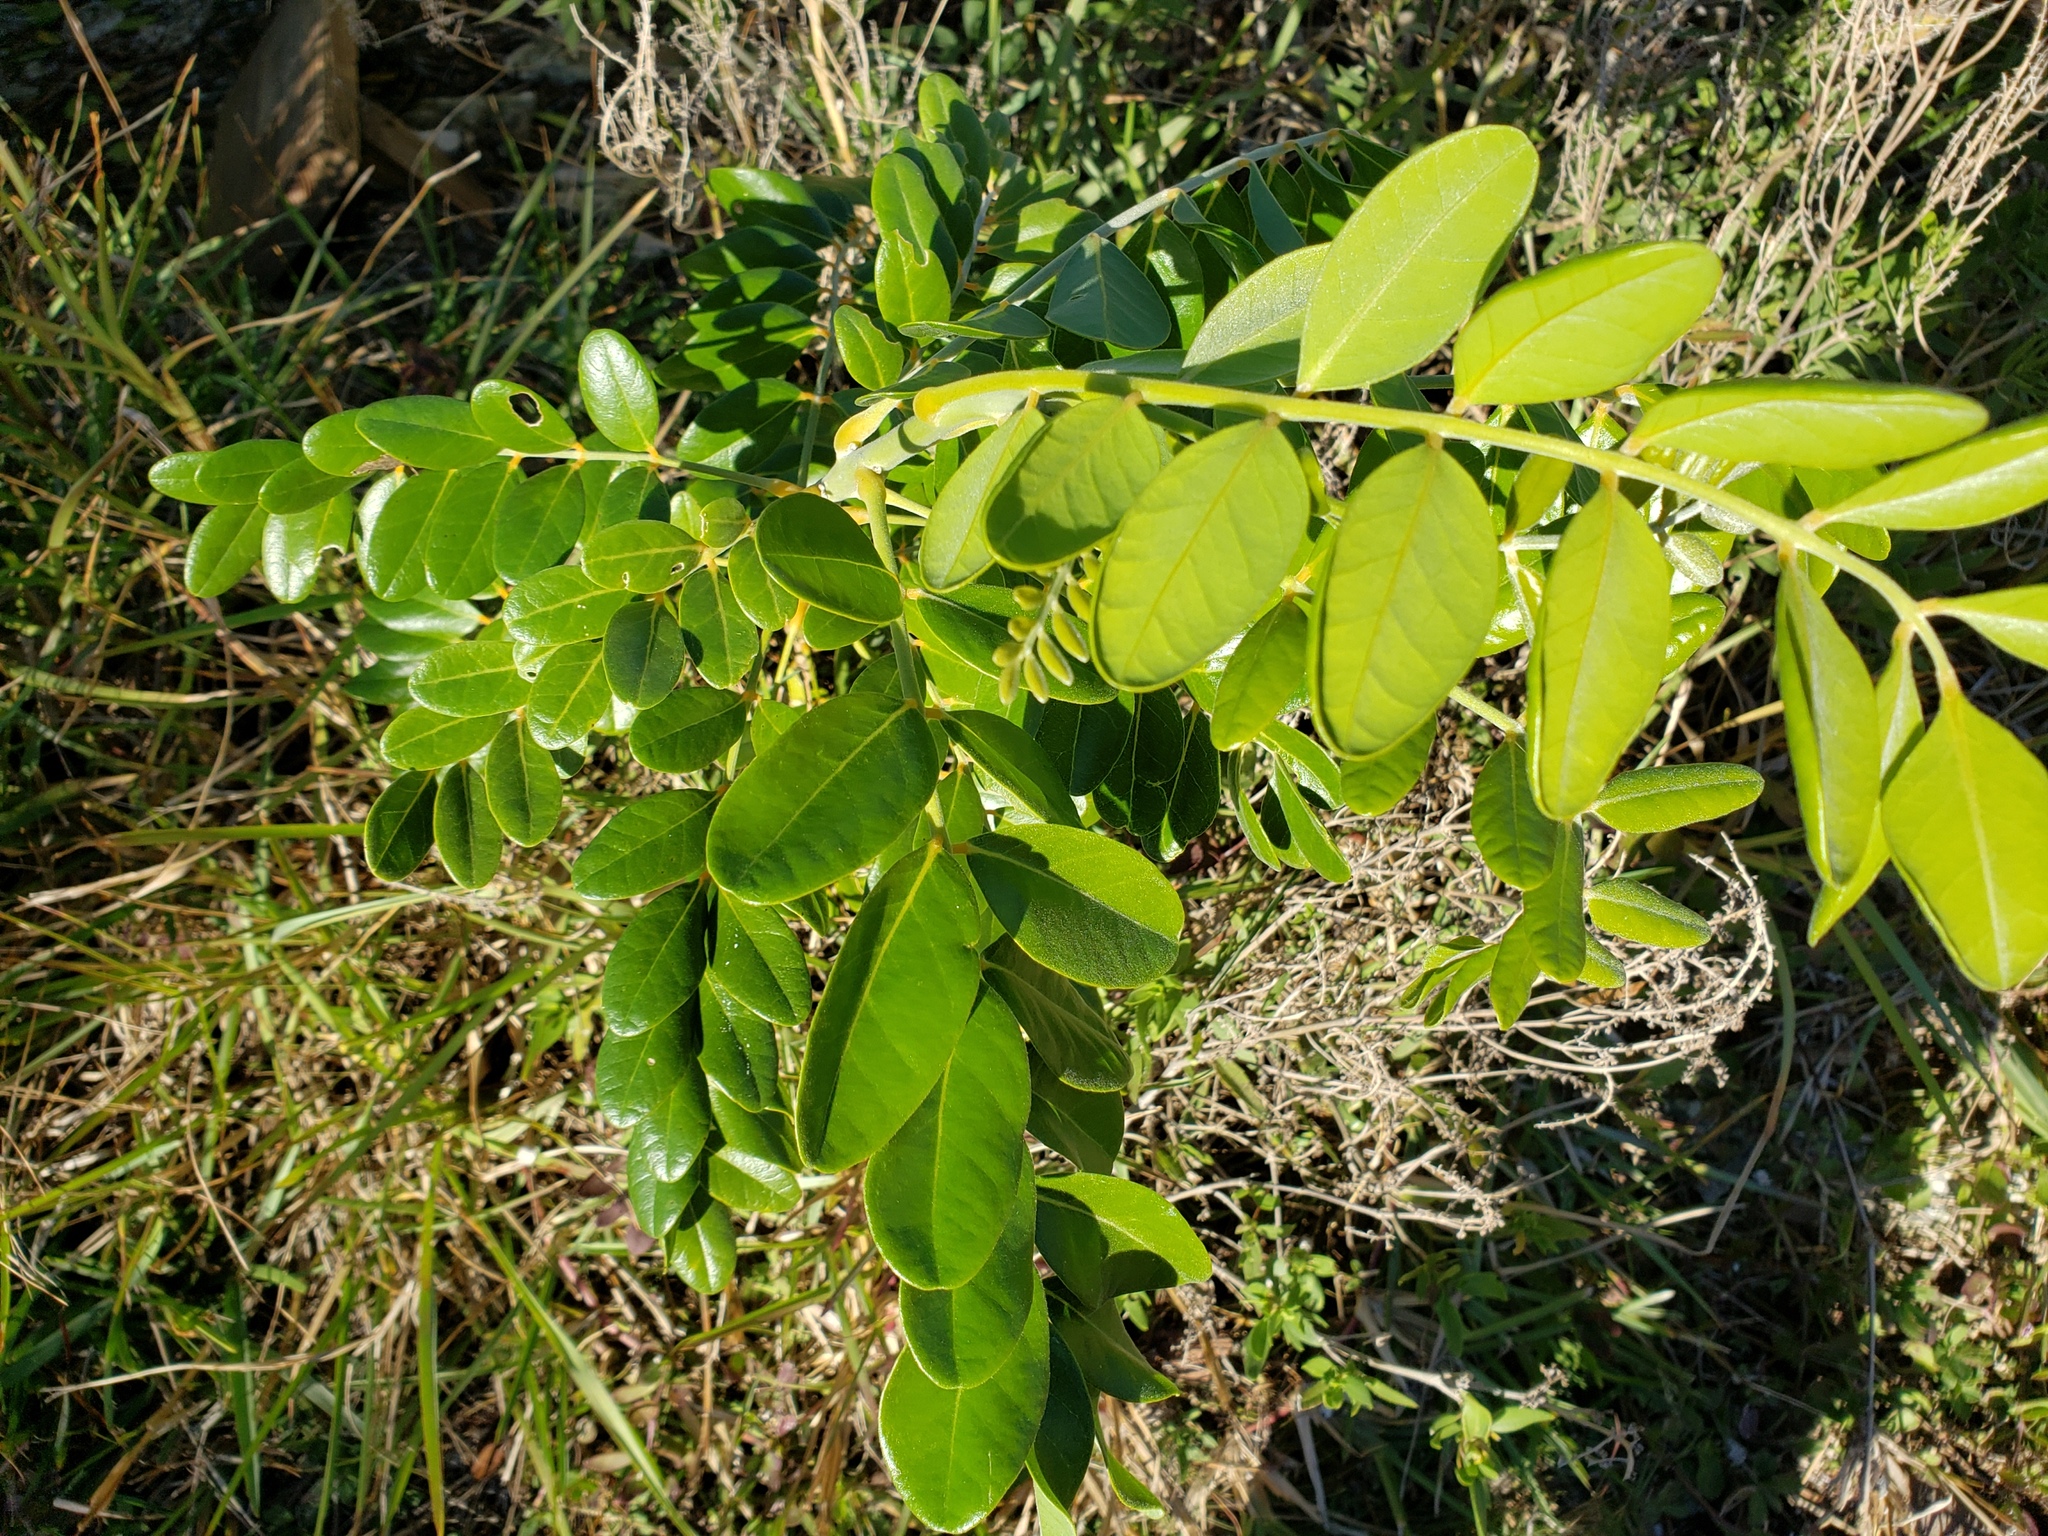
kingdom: Plantae
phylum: Tracheophyta
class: Magnoliopsida
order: Fabales
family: Fabaceae
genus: Sophora
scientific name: Sophora tomentosa
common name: Yellow necklacepod
